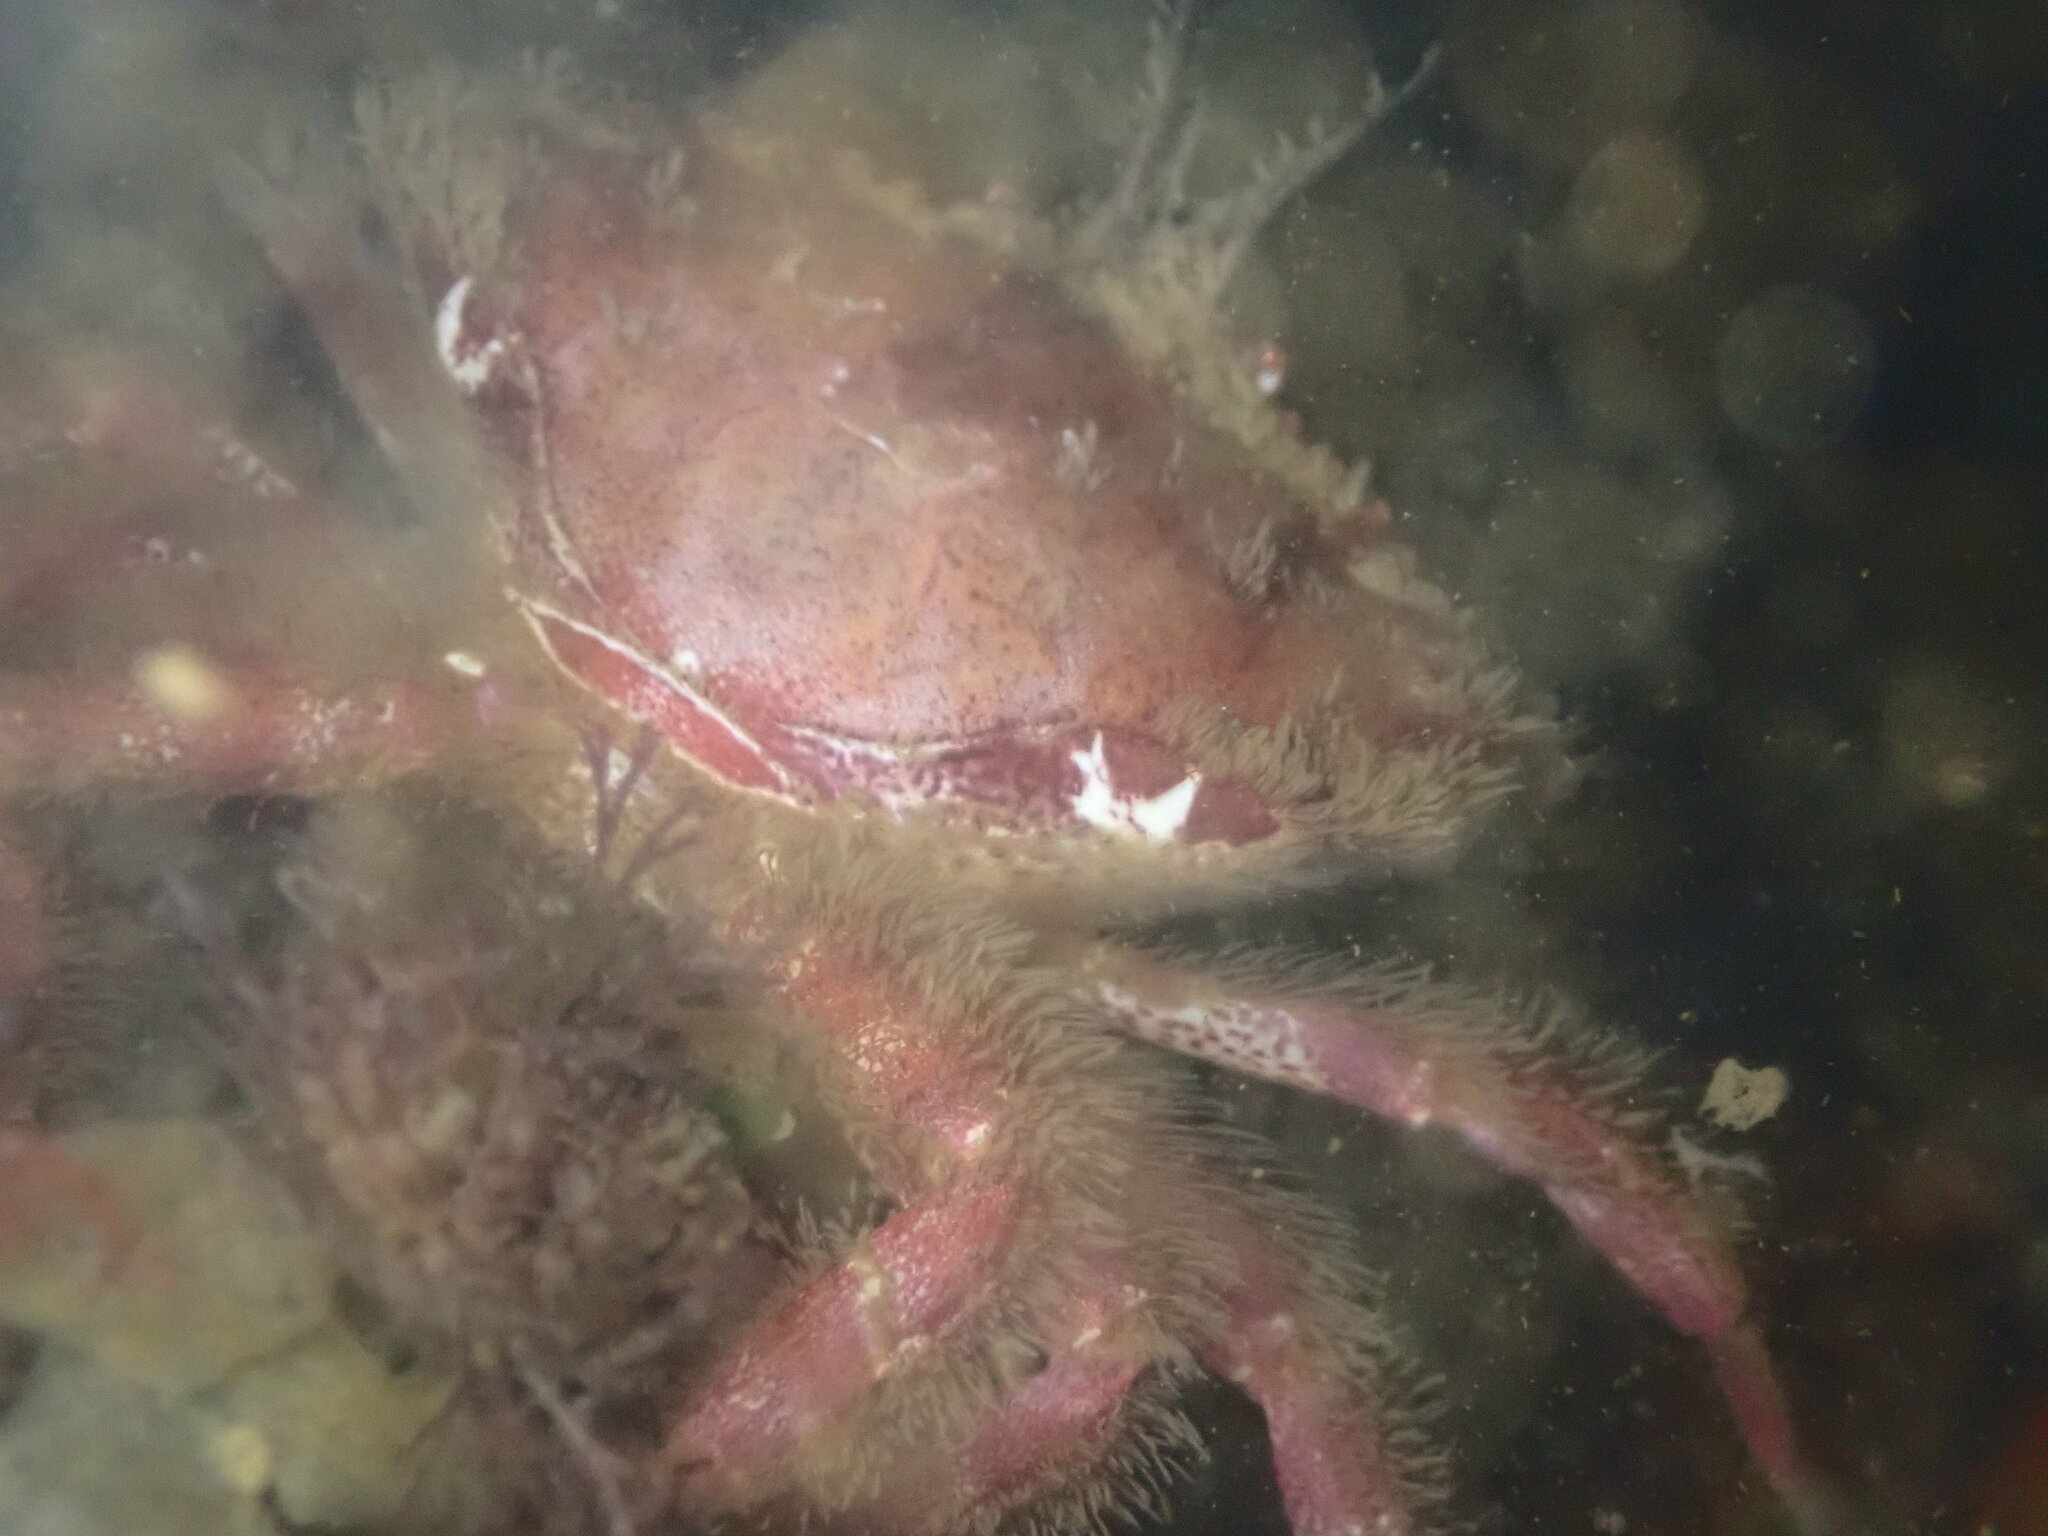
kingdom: Animalia
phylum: Arthropoda
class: Malacostraca
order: Decapoda
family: Cancridae
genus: Romaleon
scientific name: Romaleon antennarium
